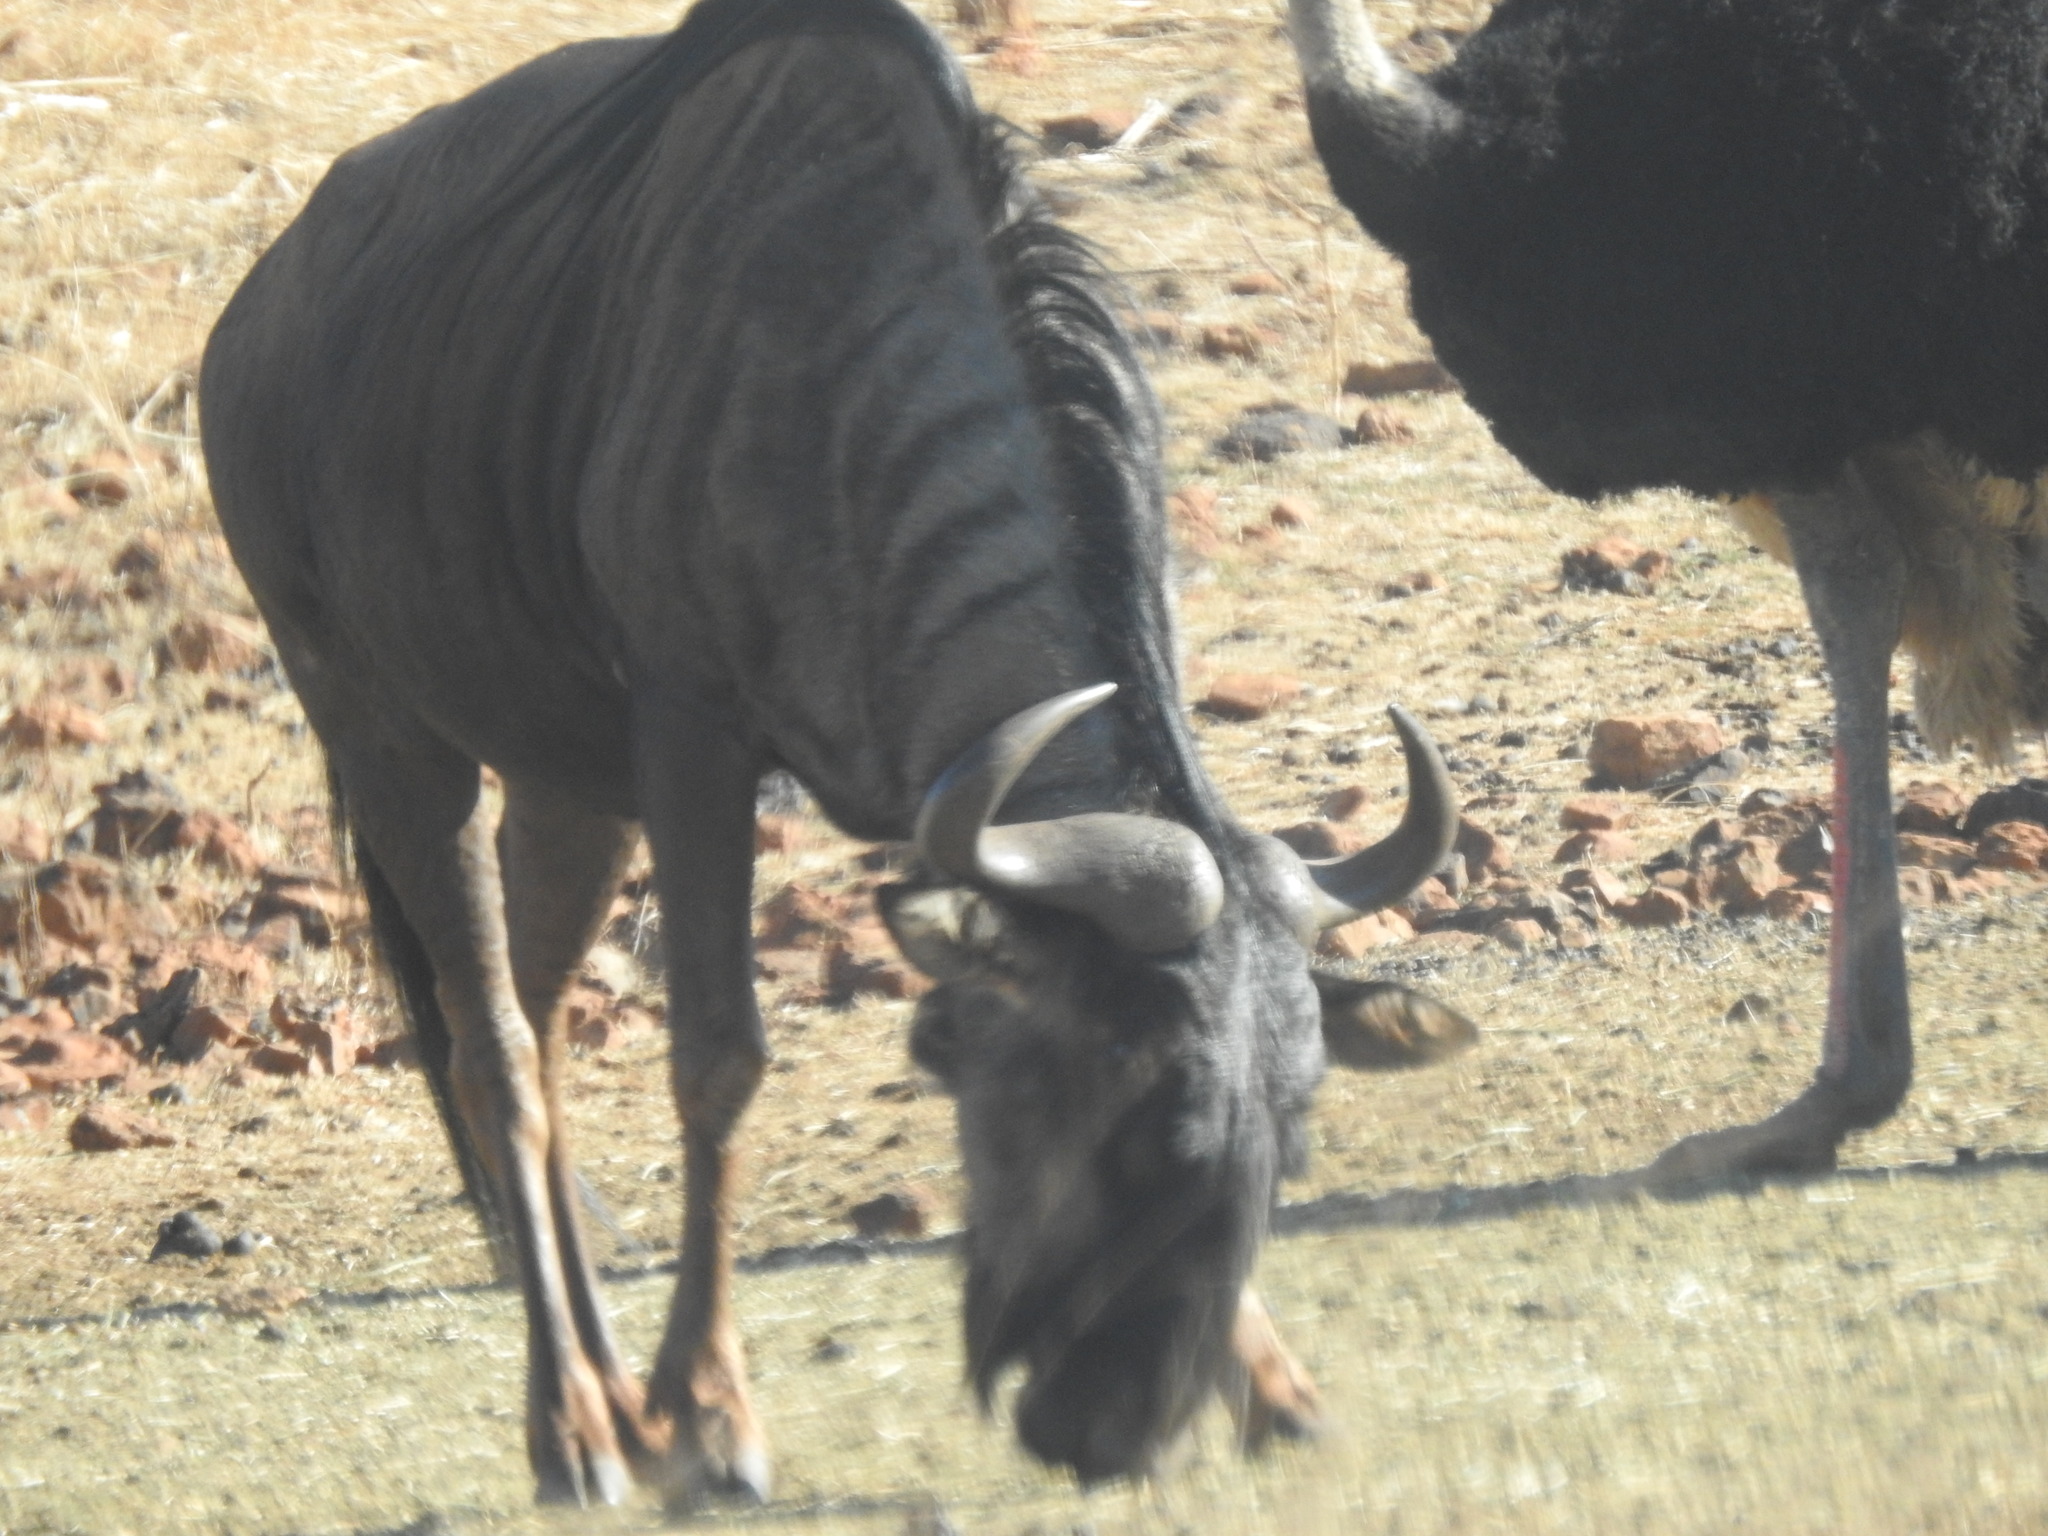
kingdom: Animalia
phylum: Chordata
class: Mammalia
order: Artiodactyla
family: Bovidae
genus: Connochaetes
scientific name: Connochaetes taurinus
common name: Blue wildebeest
